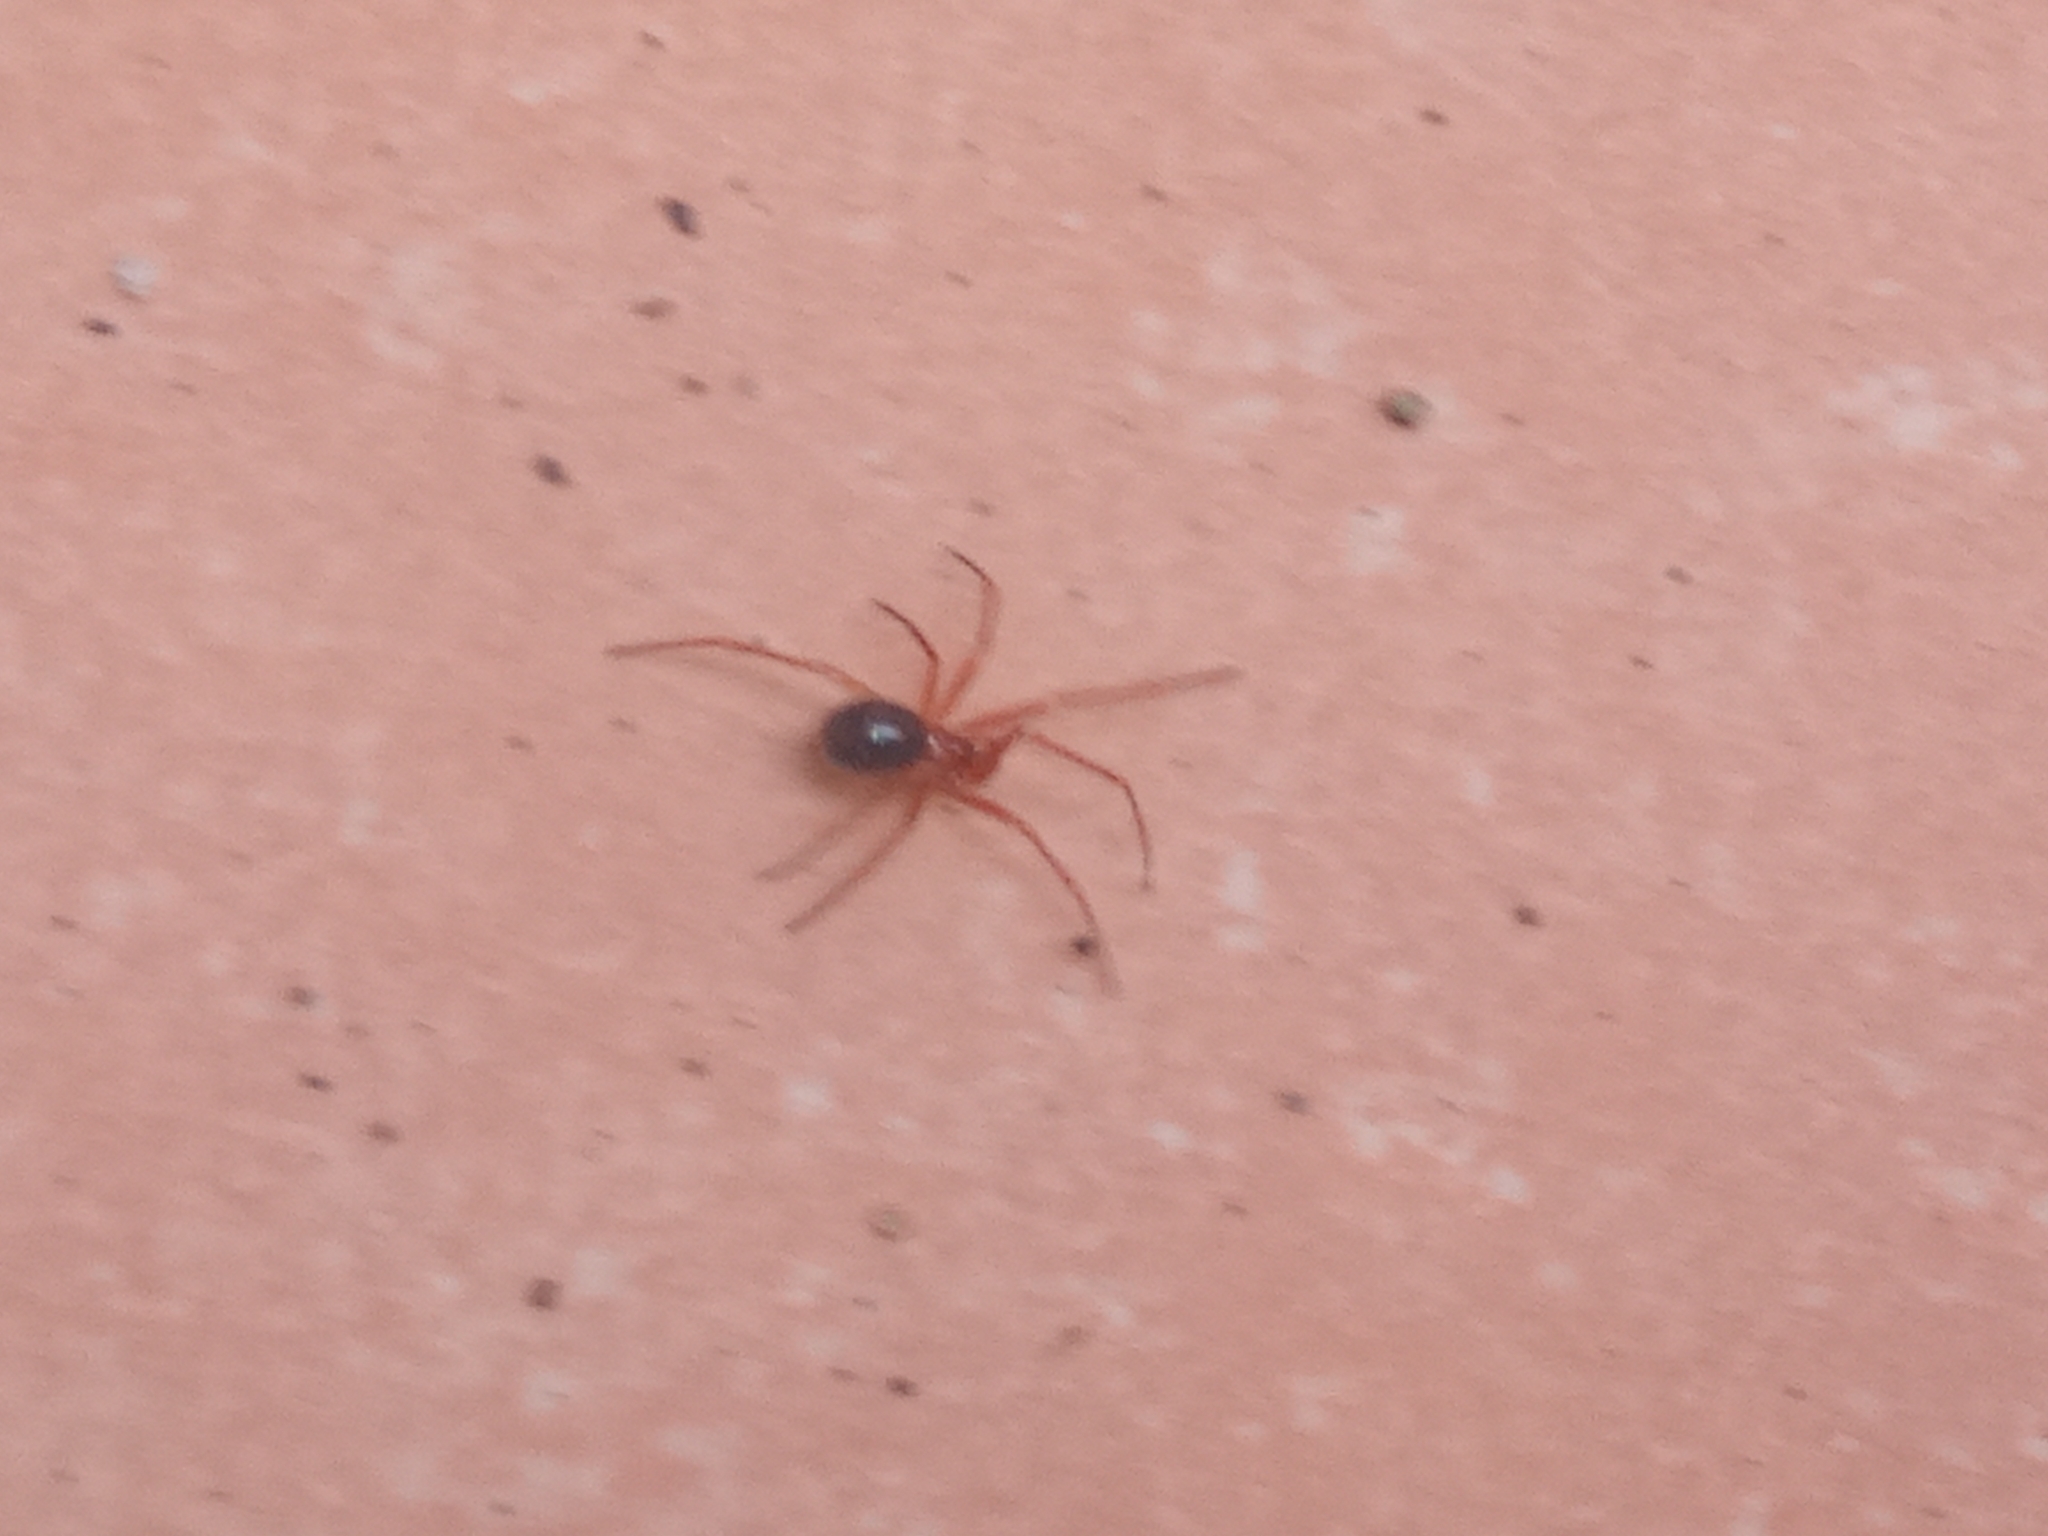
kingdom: Animalia
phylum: Arthropoda
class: Arachnida
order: Araneae
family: Theridiidae
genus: Nesticodes
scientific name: Nesticodes rufipes
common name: Cobweb spiders
